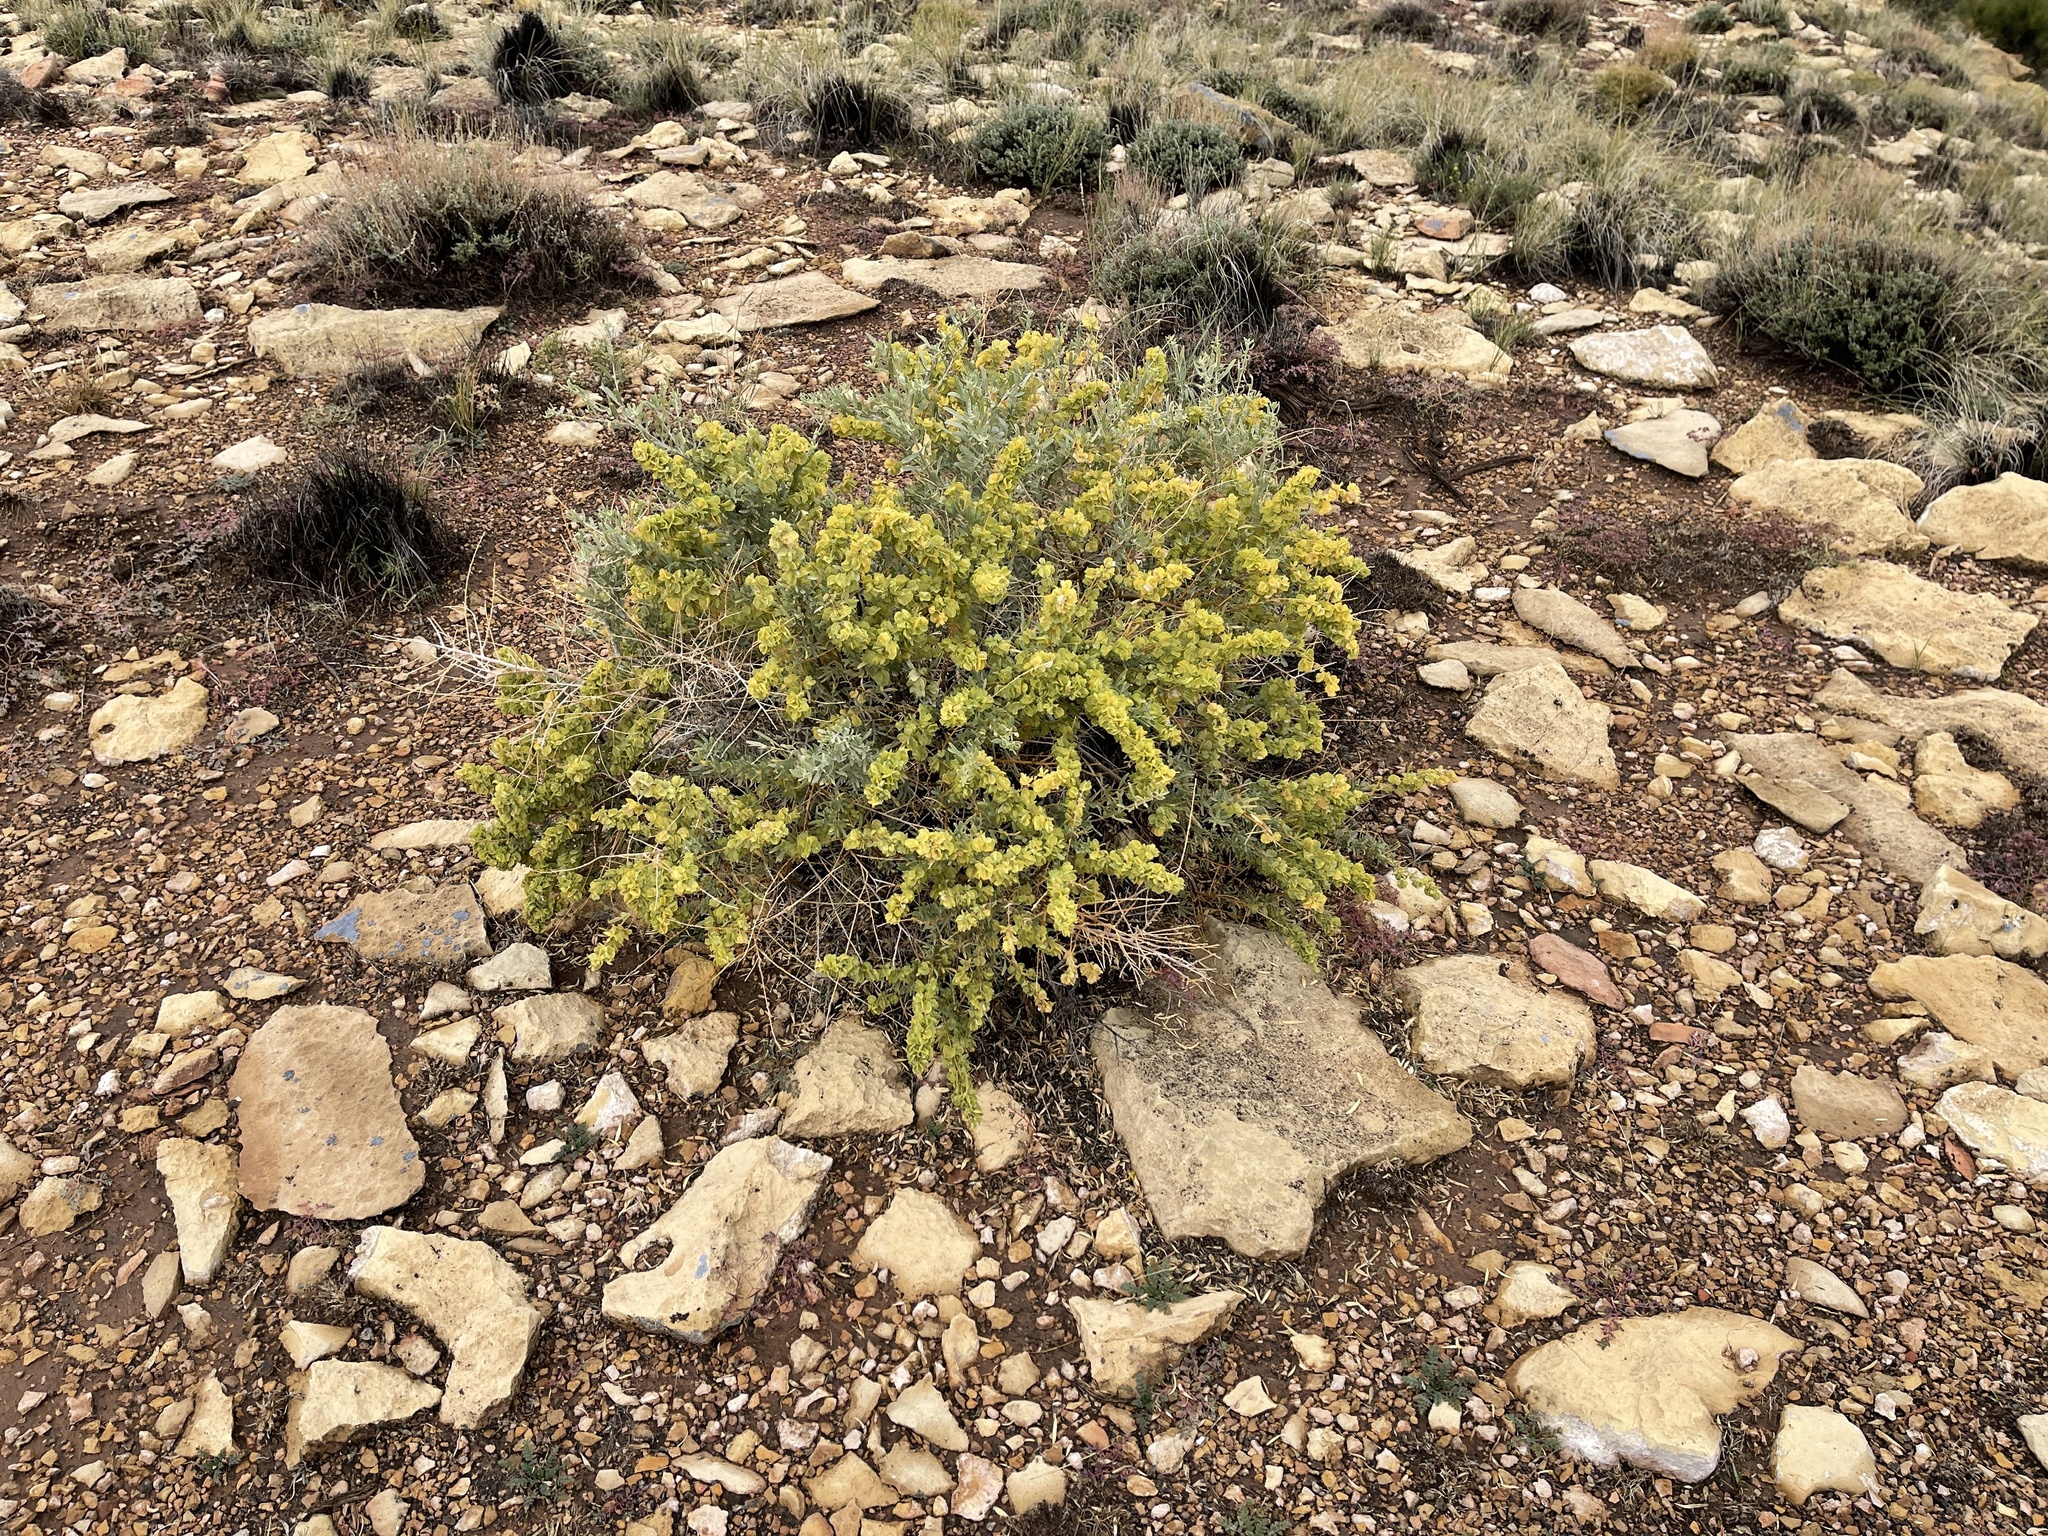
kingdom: Plantae
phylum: Tracheophyta
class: Magnoliopsida
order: Caryophyllales
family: Amaranthaceae
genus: Atriplex
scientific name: Atriplex canescens
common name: Four-wing saltbush
